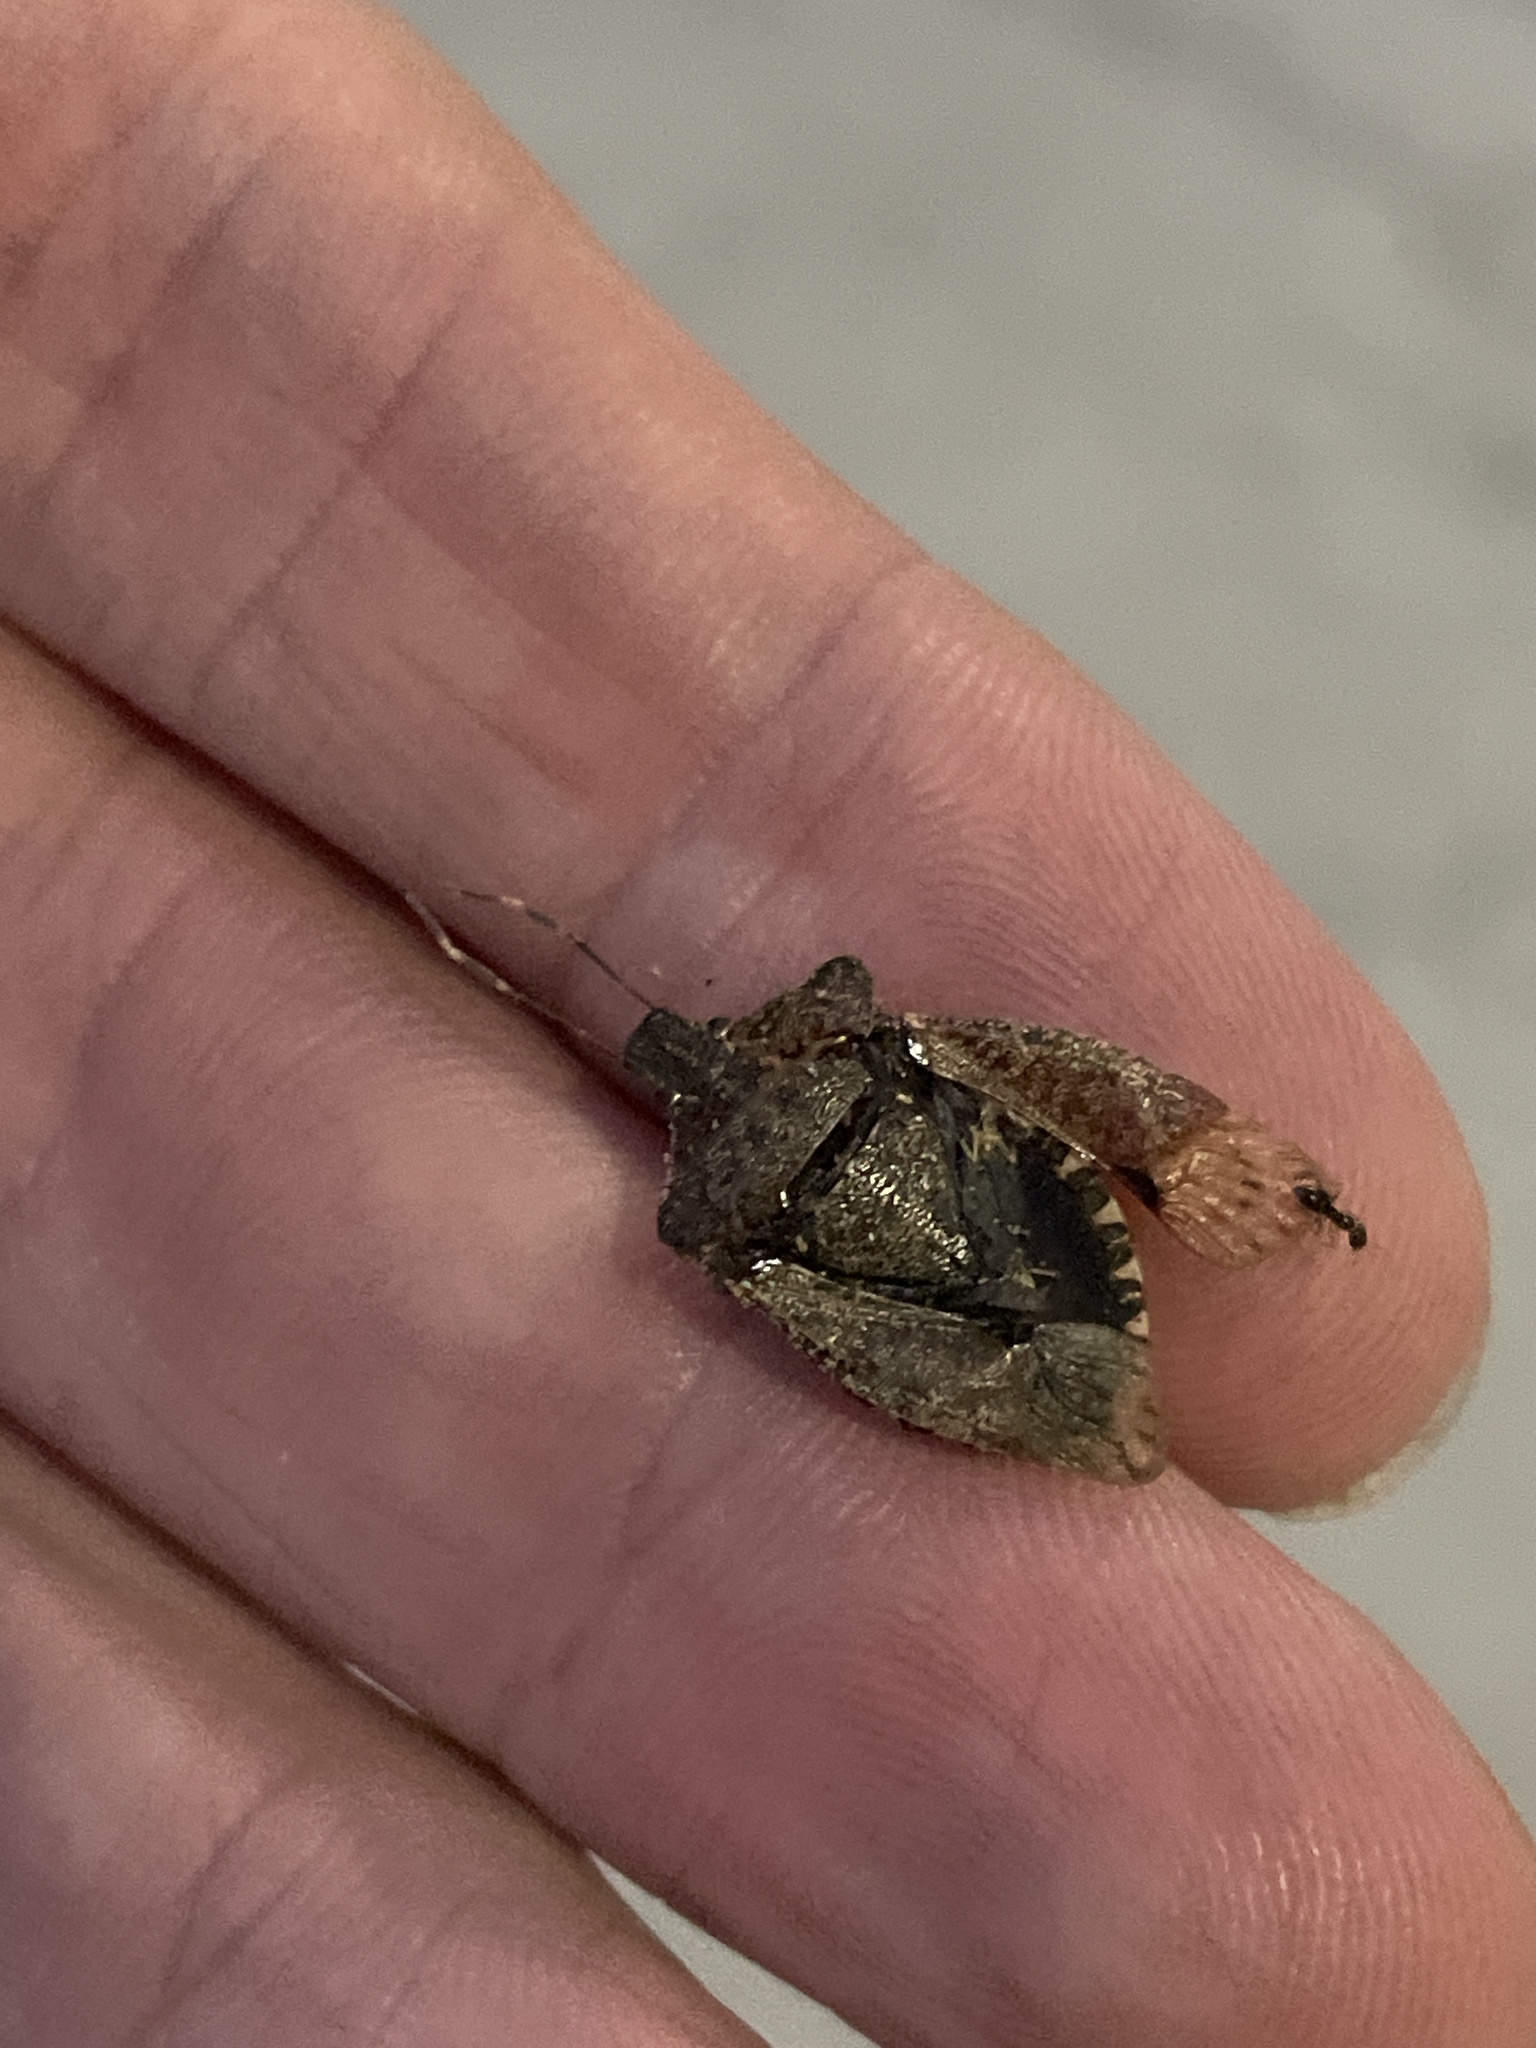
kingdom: Animalia
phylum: Arthropoda
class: Insecta
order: Hemiptera
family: Pentatomidae
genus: Halyomorpha
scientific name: Halyomorpha halys
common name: Brown marmorated stink bug
